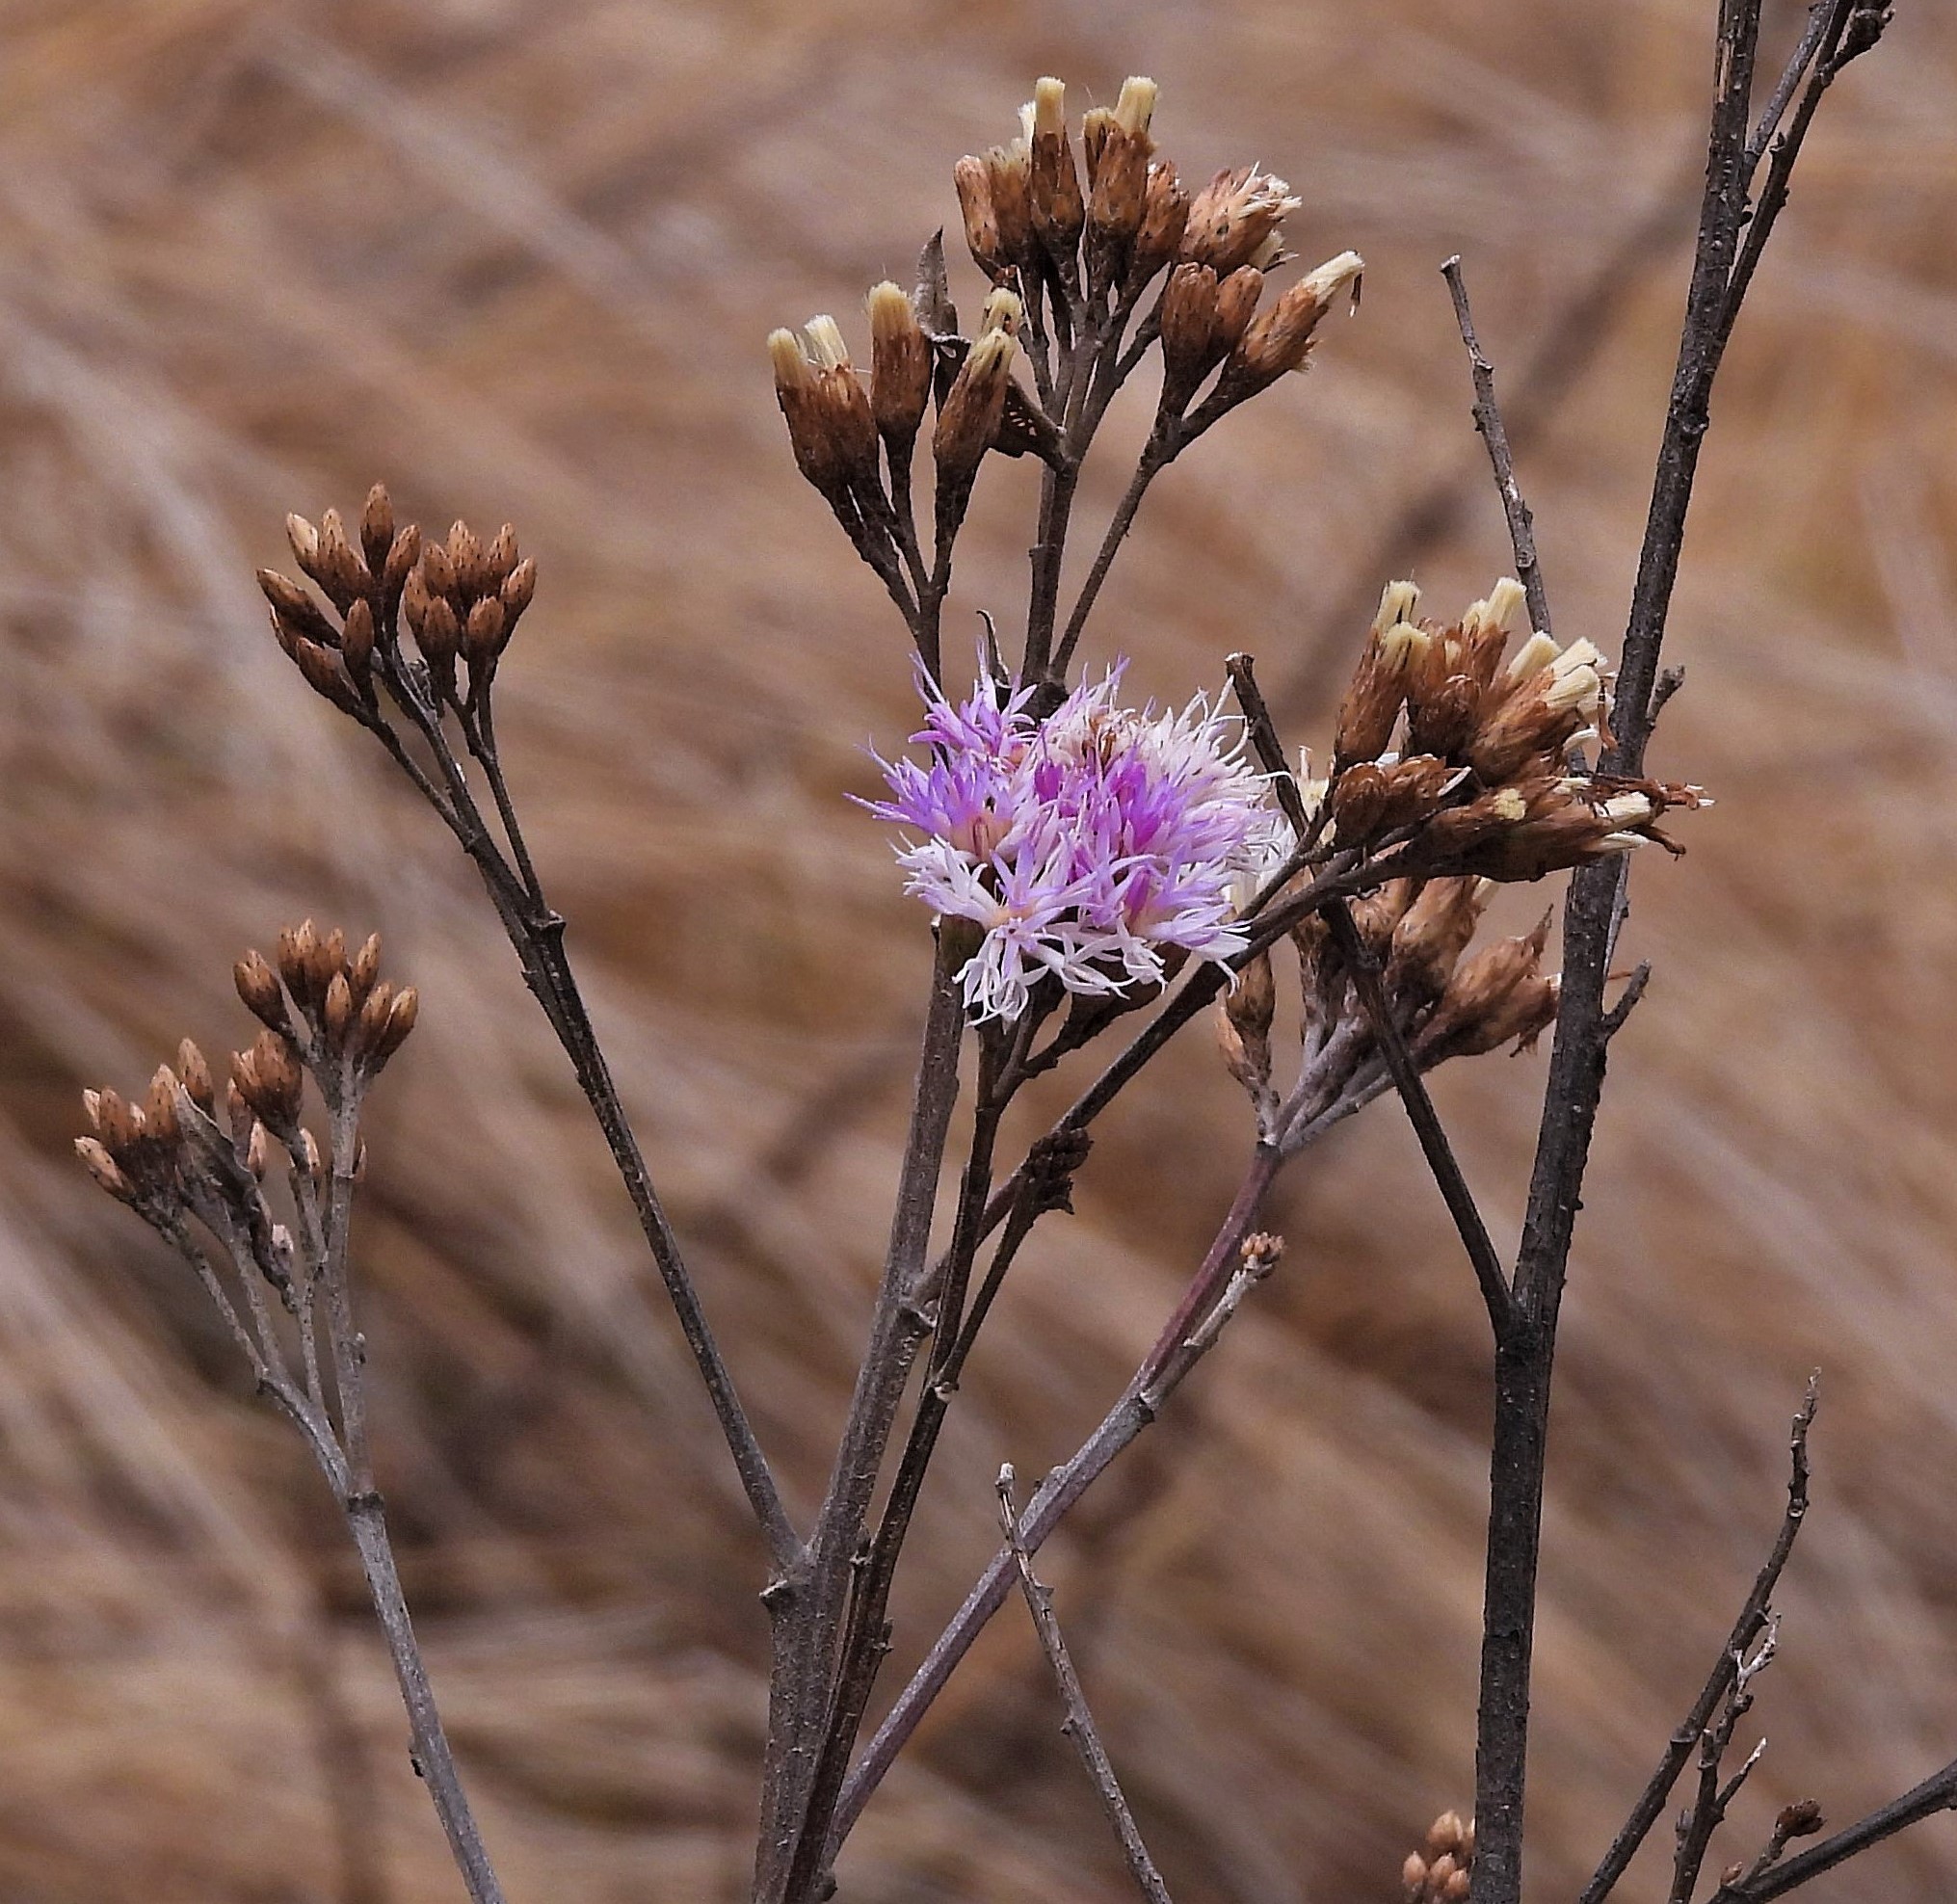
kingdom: Plantae
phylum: Tracheophyta
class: Magnoliopsida
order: Asterales
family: Asteraceae
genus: Vernonanthura
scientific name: Vernonanthura squamulosa
